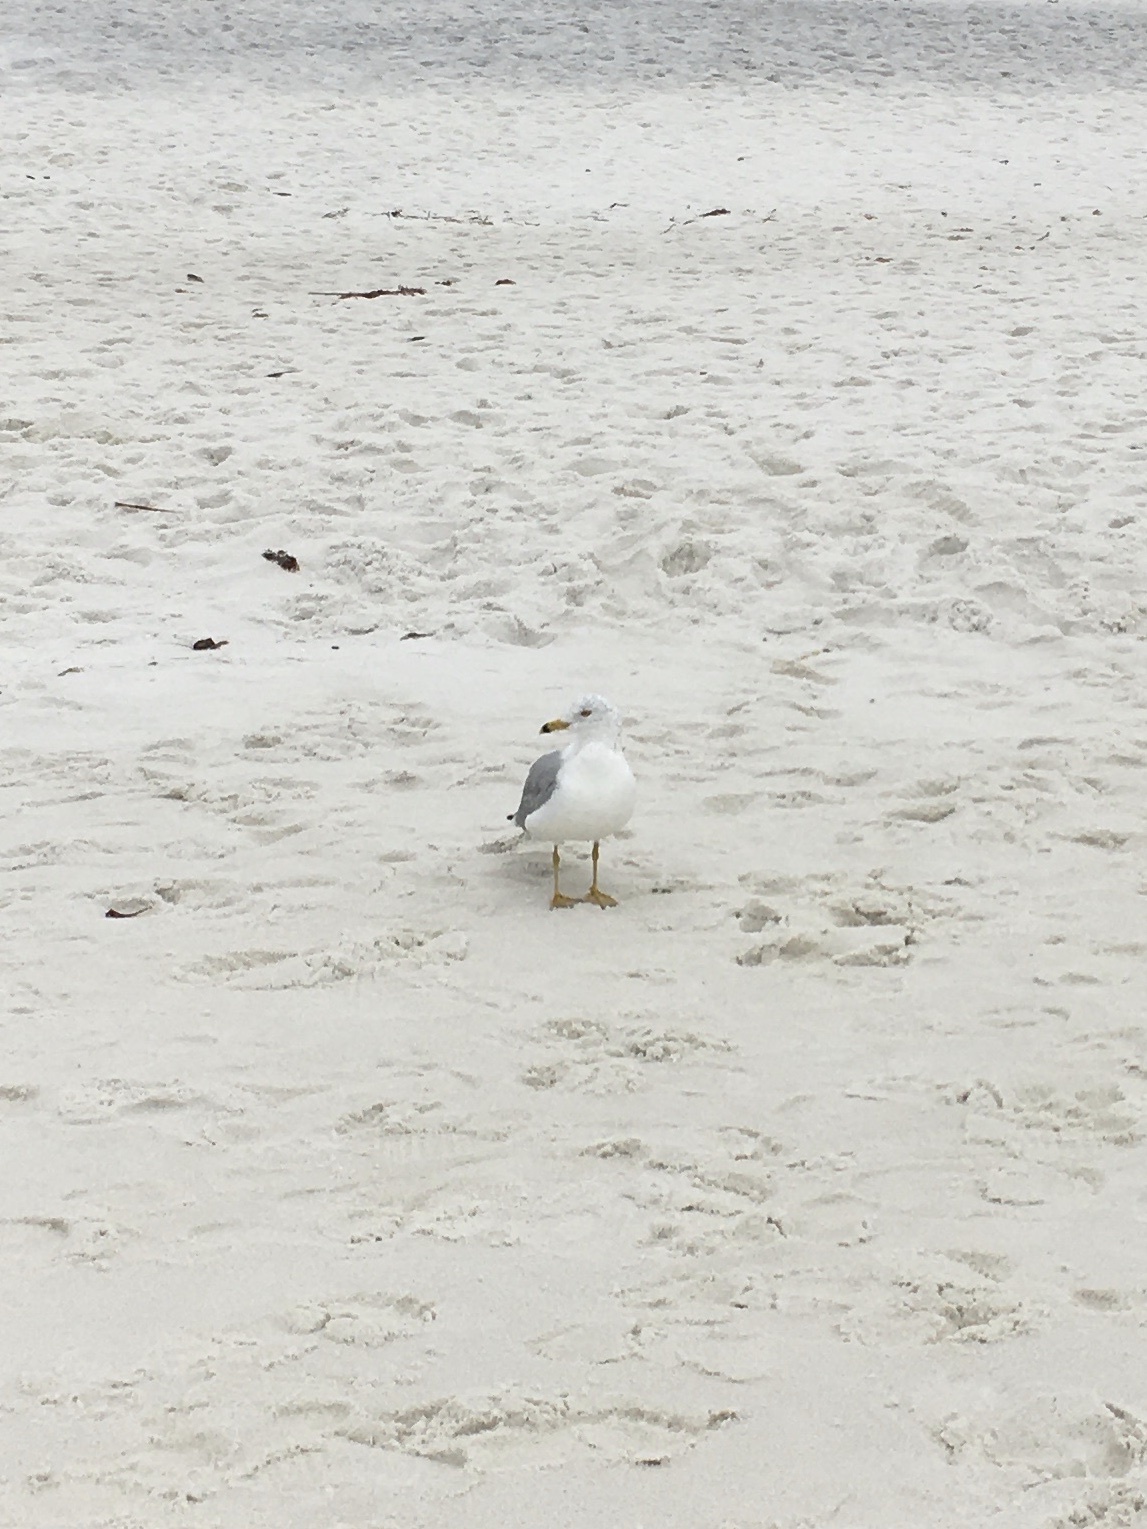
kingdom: Animalia
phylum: Chordata
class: Aves
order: Charadriiformes
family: Laridae
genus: Larus
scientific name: Larus delawarensis
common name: Ring-billed gull
